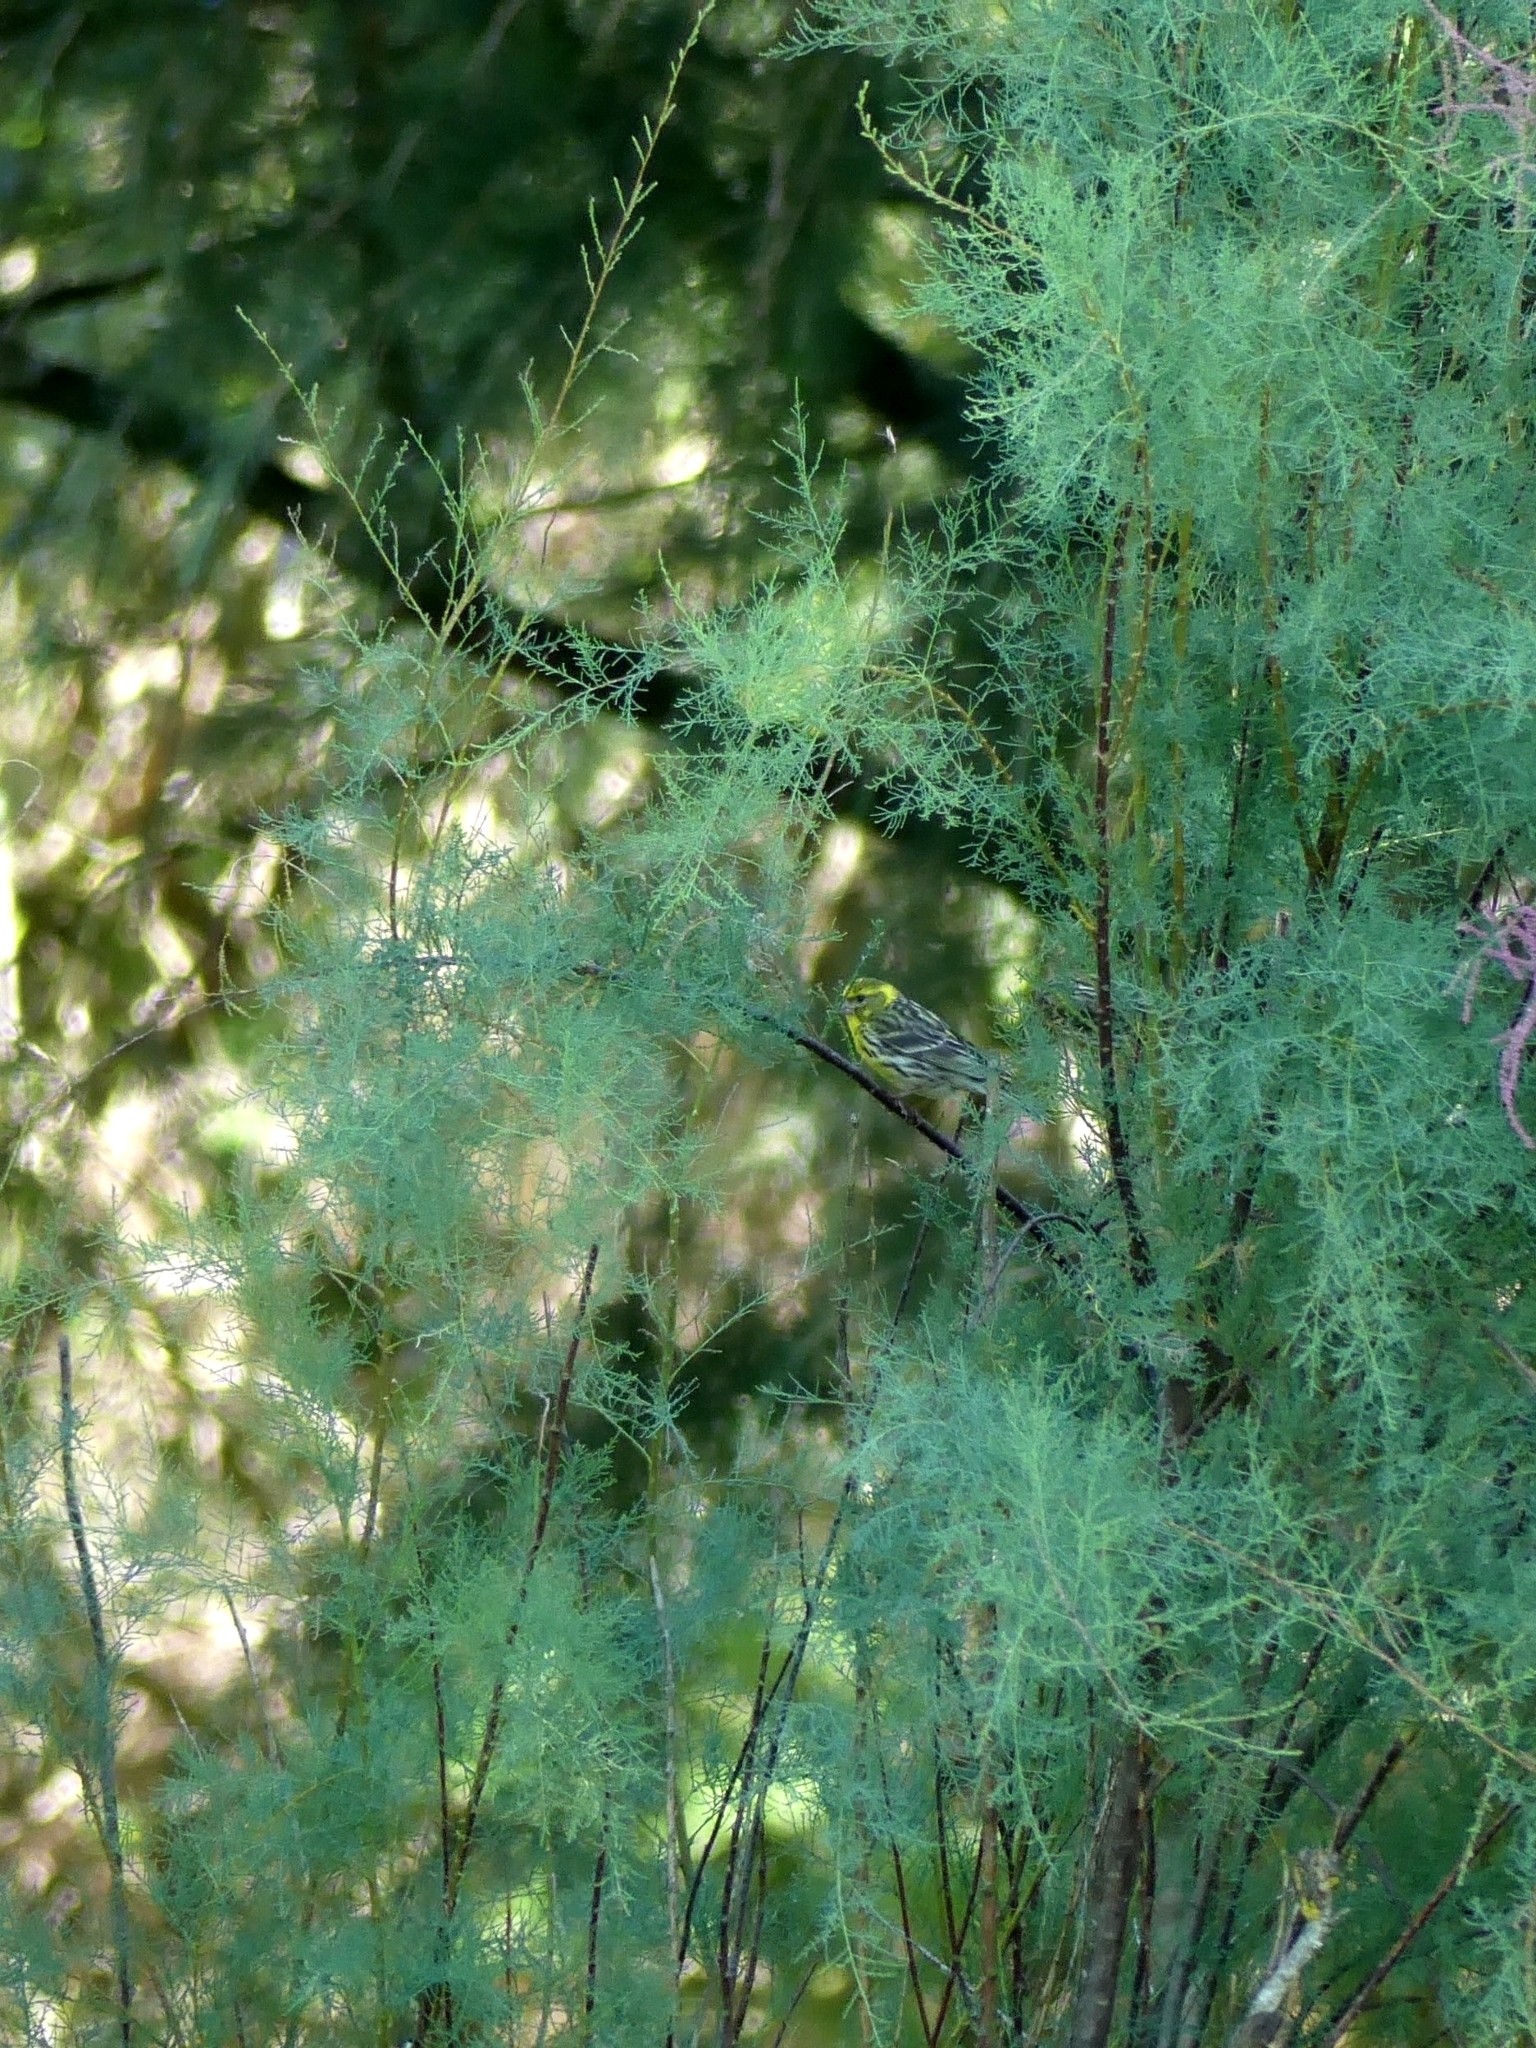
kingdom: Animalia
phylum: Chordata
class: Aves
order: Passeriformes
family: Fringillidae
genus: Serinus
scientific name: Serinus serinus
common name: European serin
